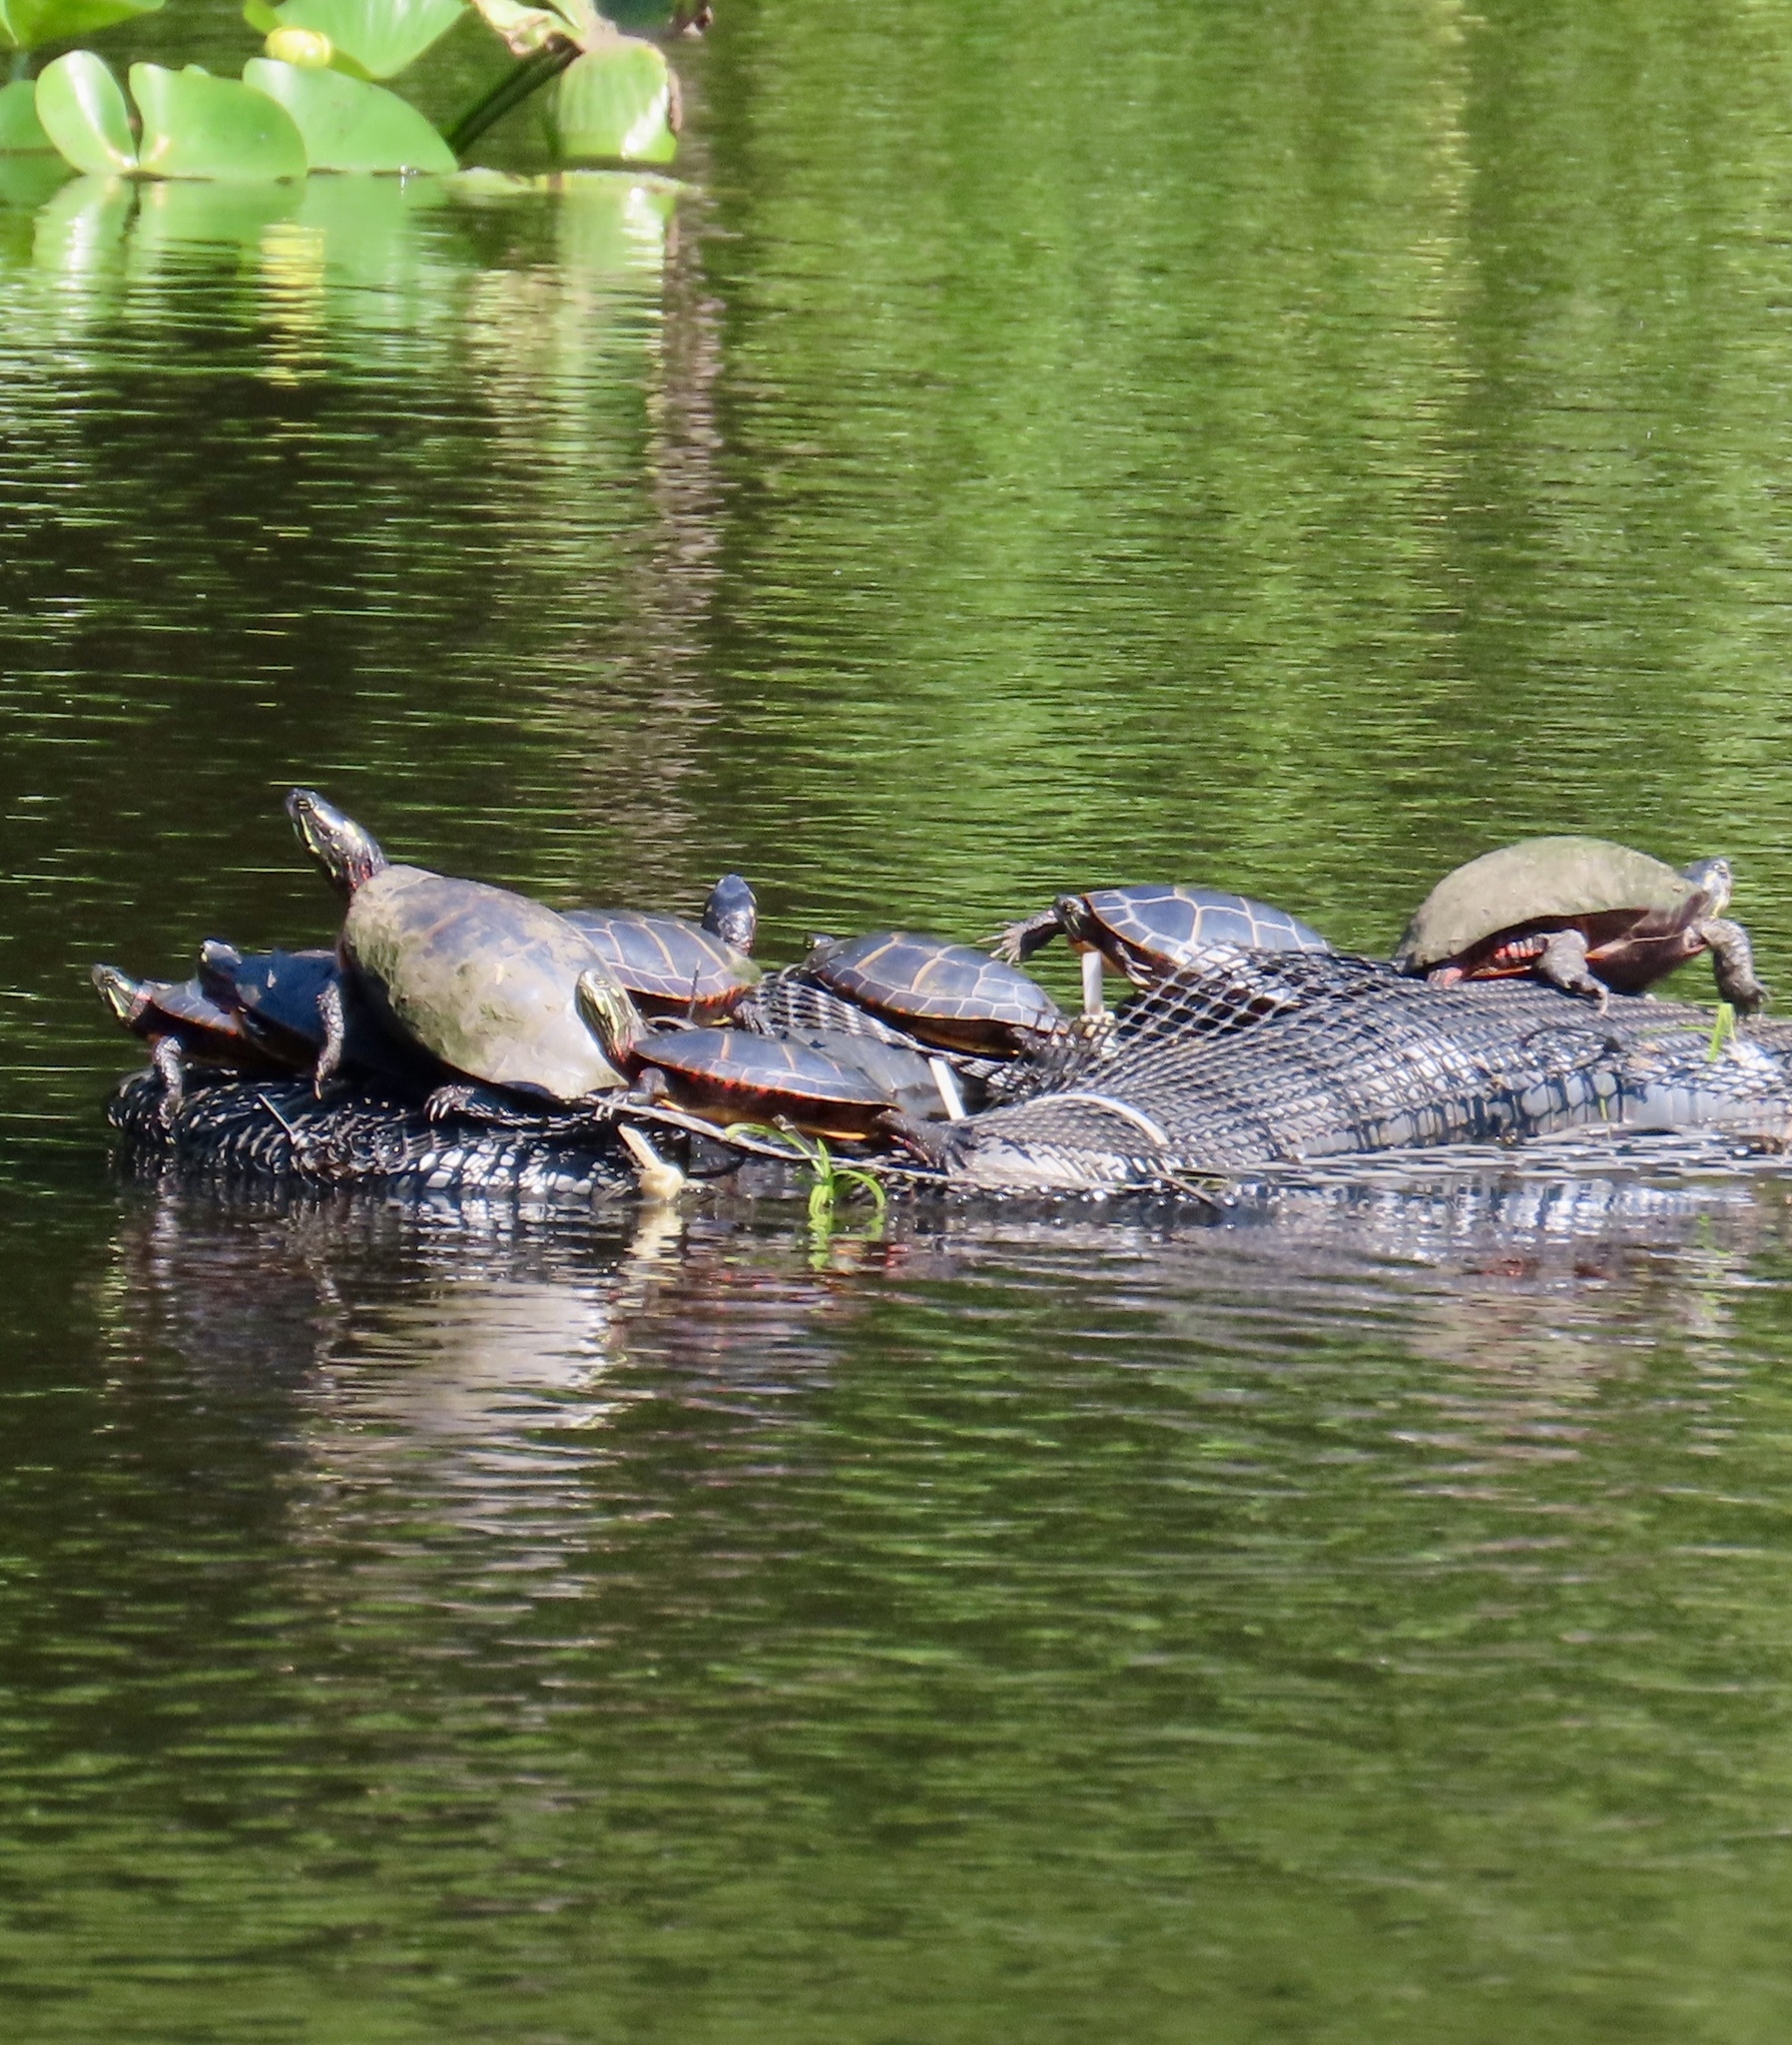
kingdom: Animalia
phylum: Chordata
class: Testudines
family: Emydidae
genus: Chrysemys
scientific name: Chrysemys picta
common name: Painted turtle
